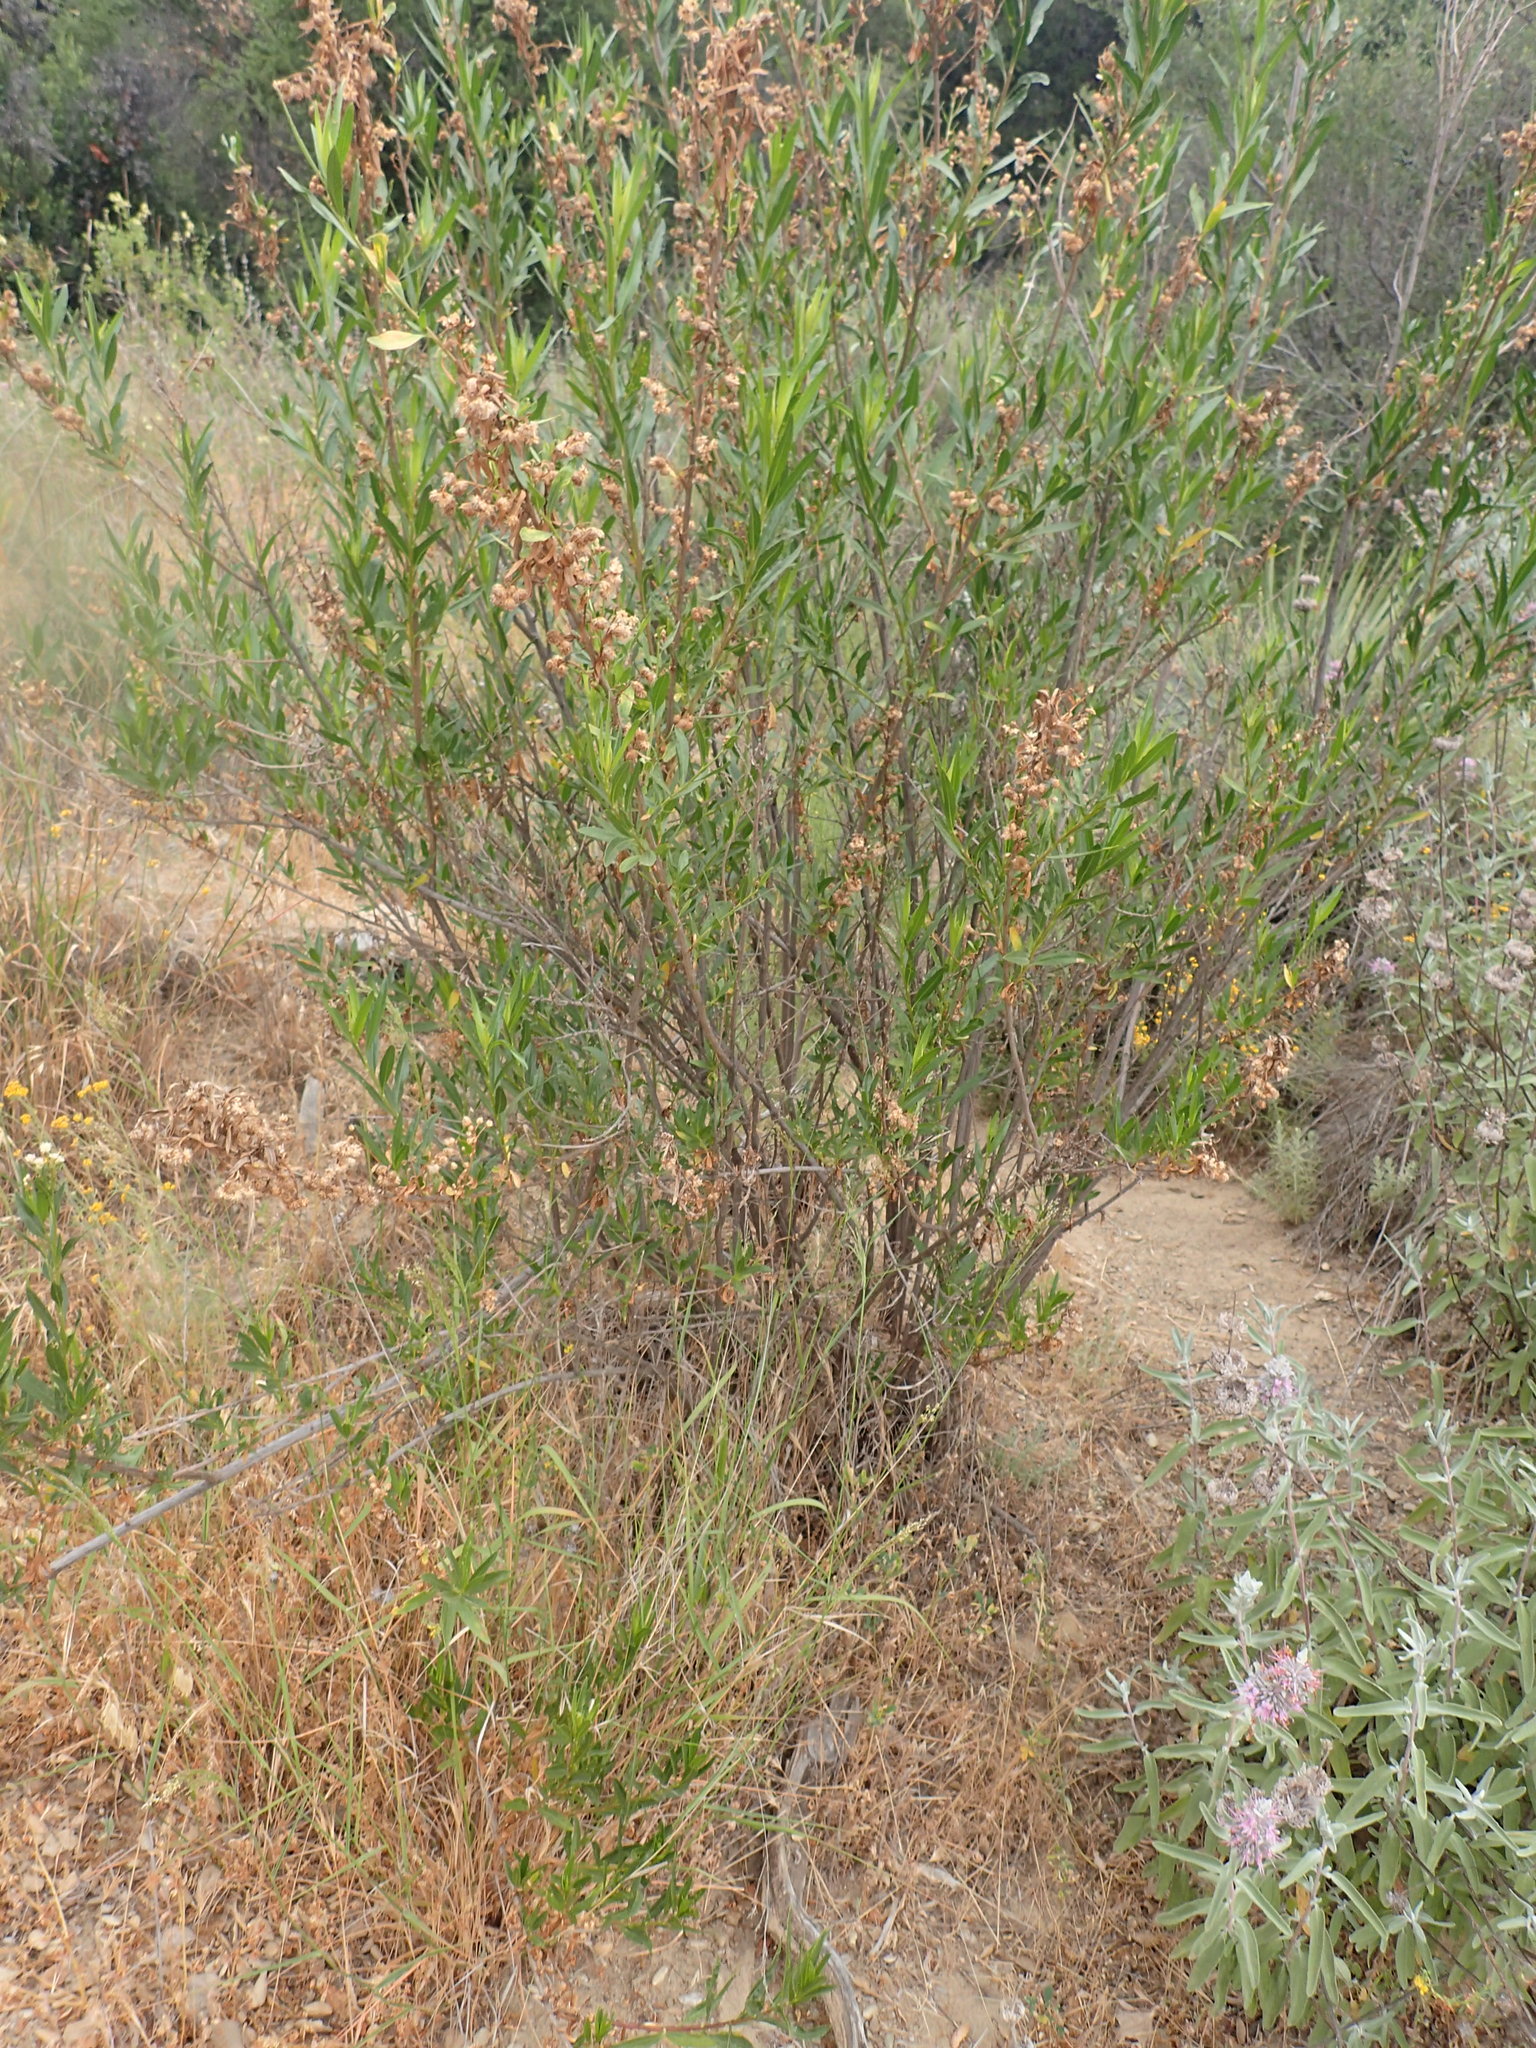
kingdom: Plantae
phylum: Tracheophyta
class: Magnoliopsida
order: Asterales
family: Asteraceae
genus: Baccharis
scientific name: Baccharis salicifolia
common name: Sticky baccharis
